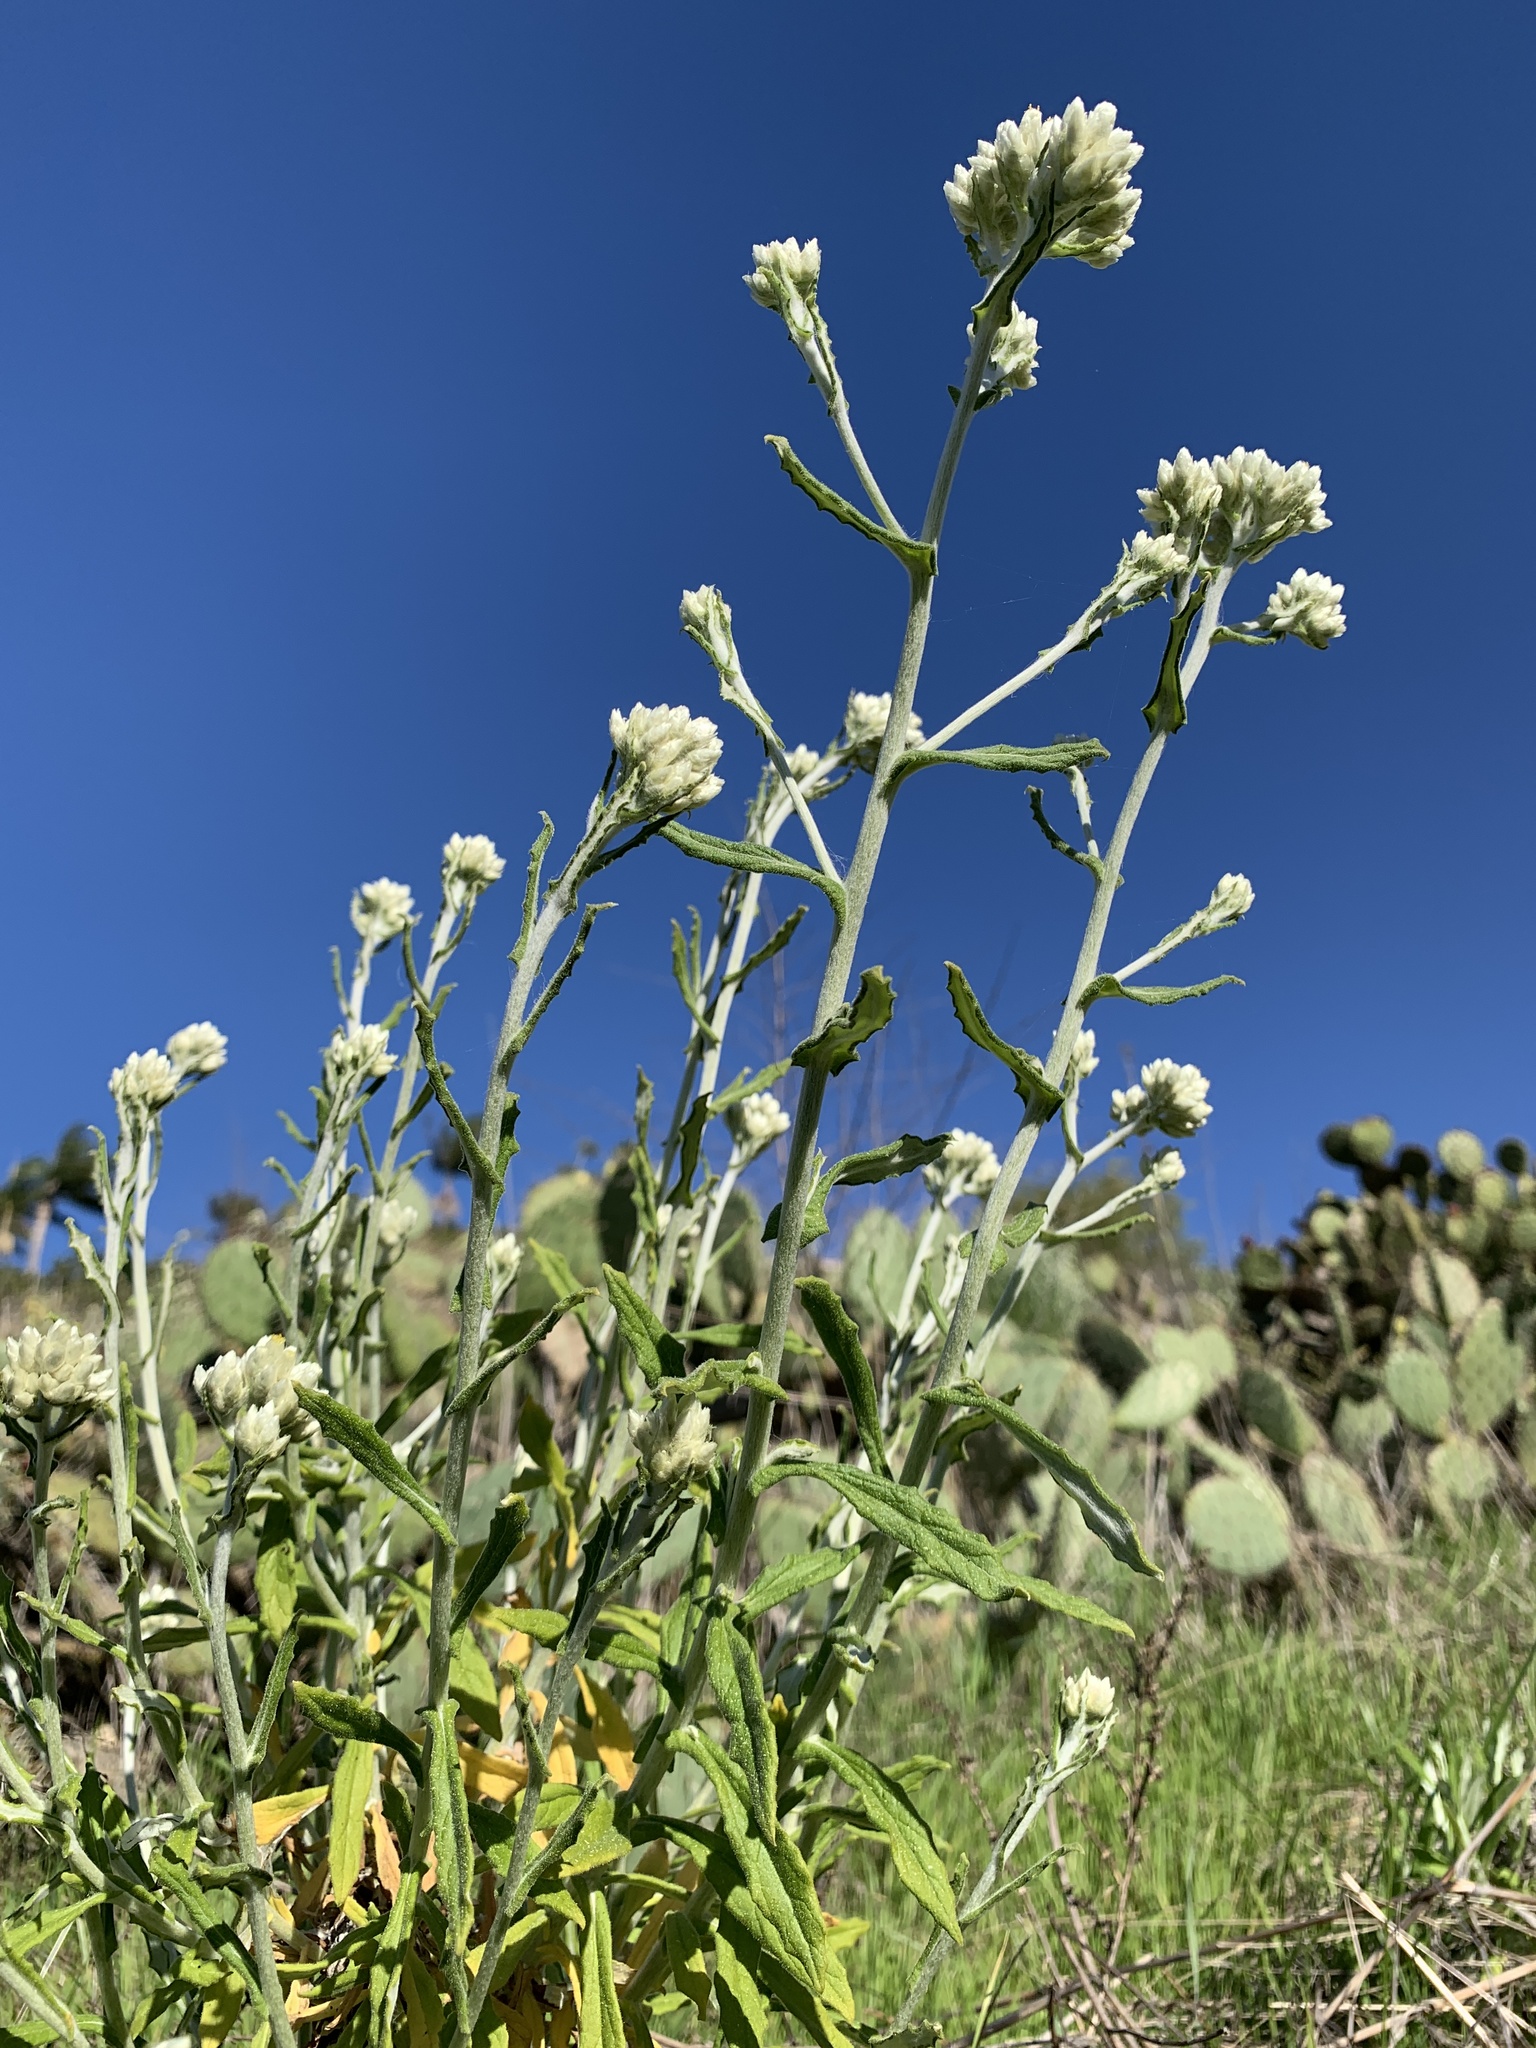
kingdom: Plantae
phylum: Tracheophyta
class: Magnoliopsida
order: Asterales
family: Asteraceae
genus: Pseudognaphalium
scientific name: Pseudognaphalium biolettii
